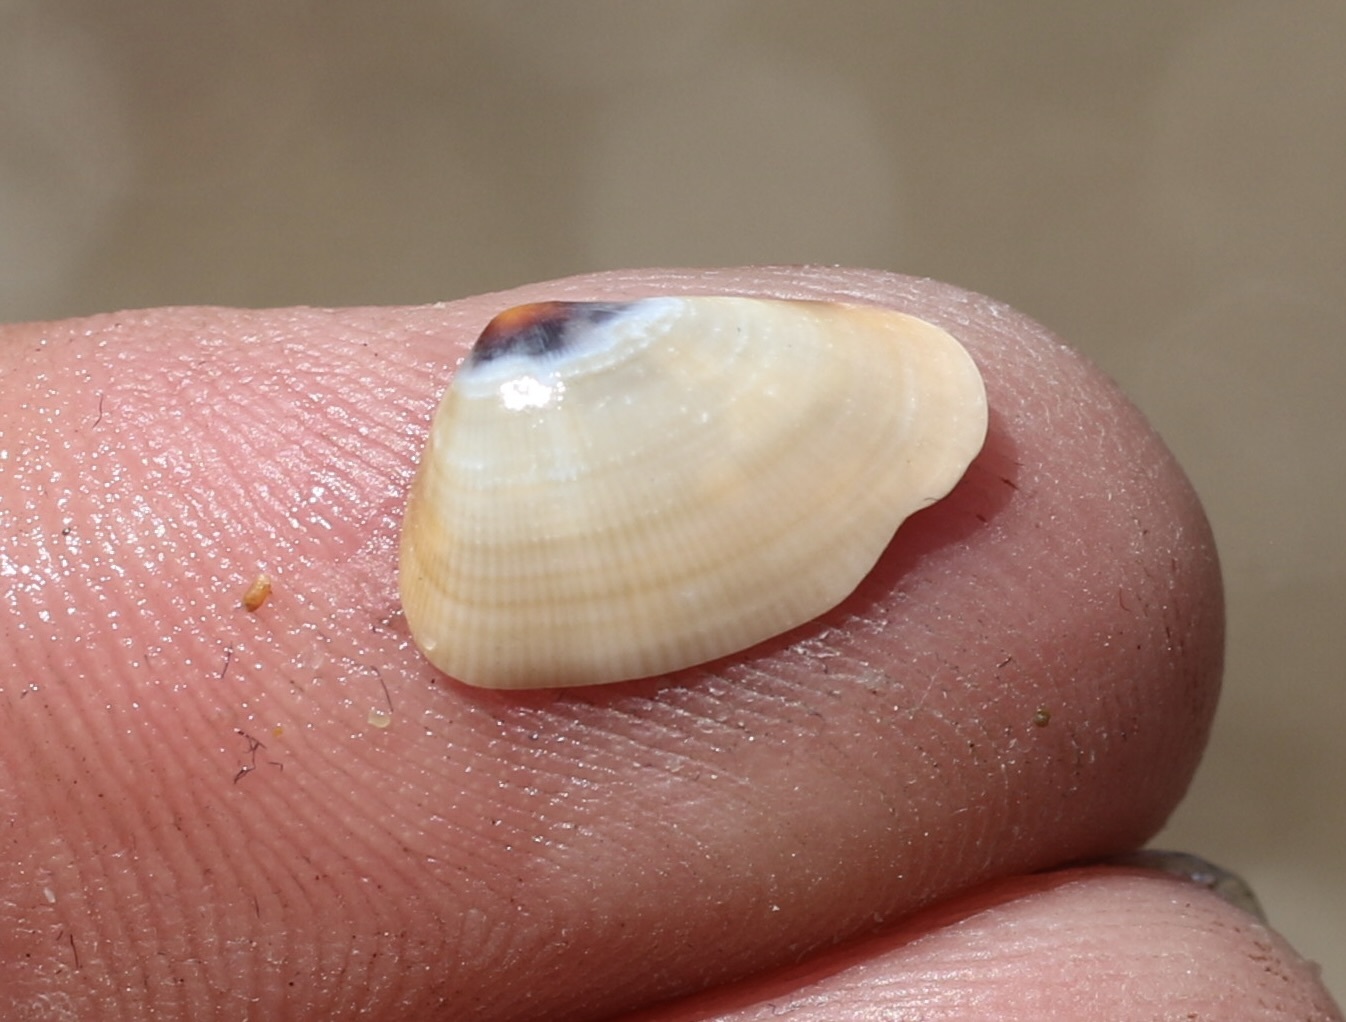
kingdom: Animalia
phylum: Mollusca
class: Bivalvia
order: Cardiida
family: Donacidae
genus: Donax
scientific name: Donax gouldii
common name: Gould beanclam
